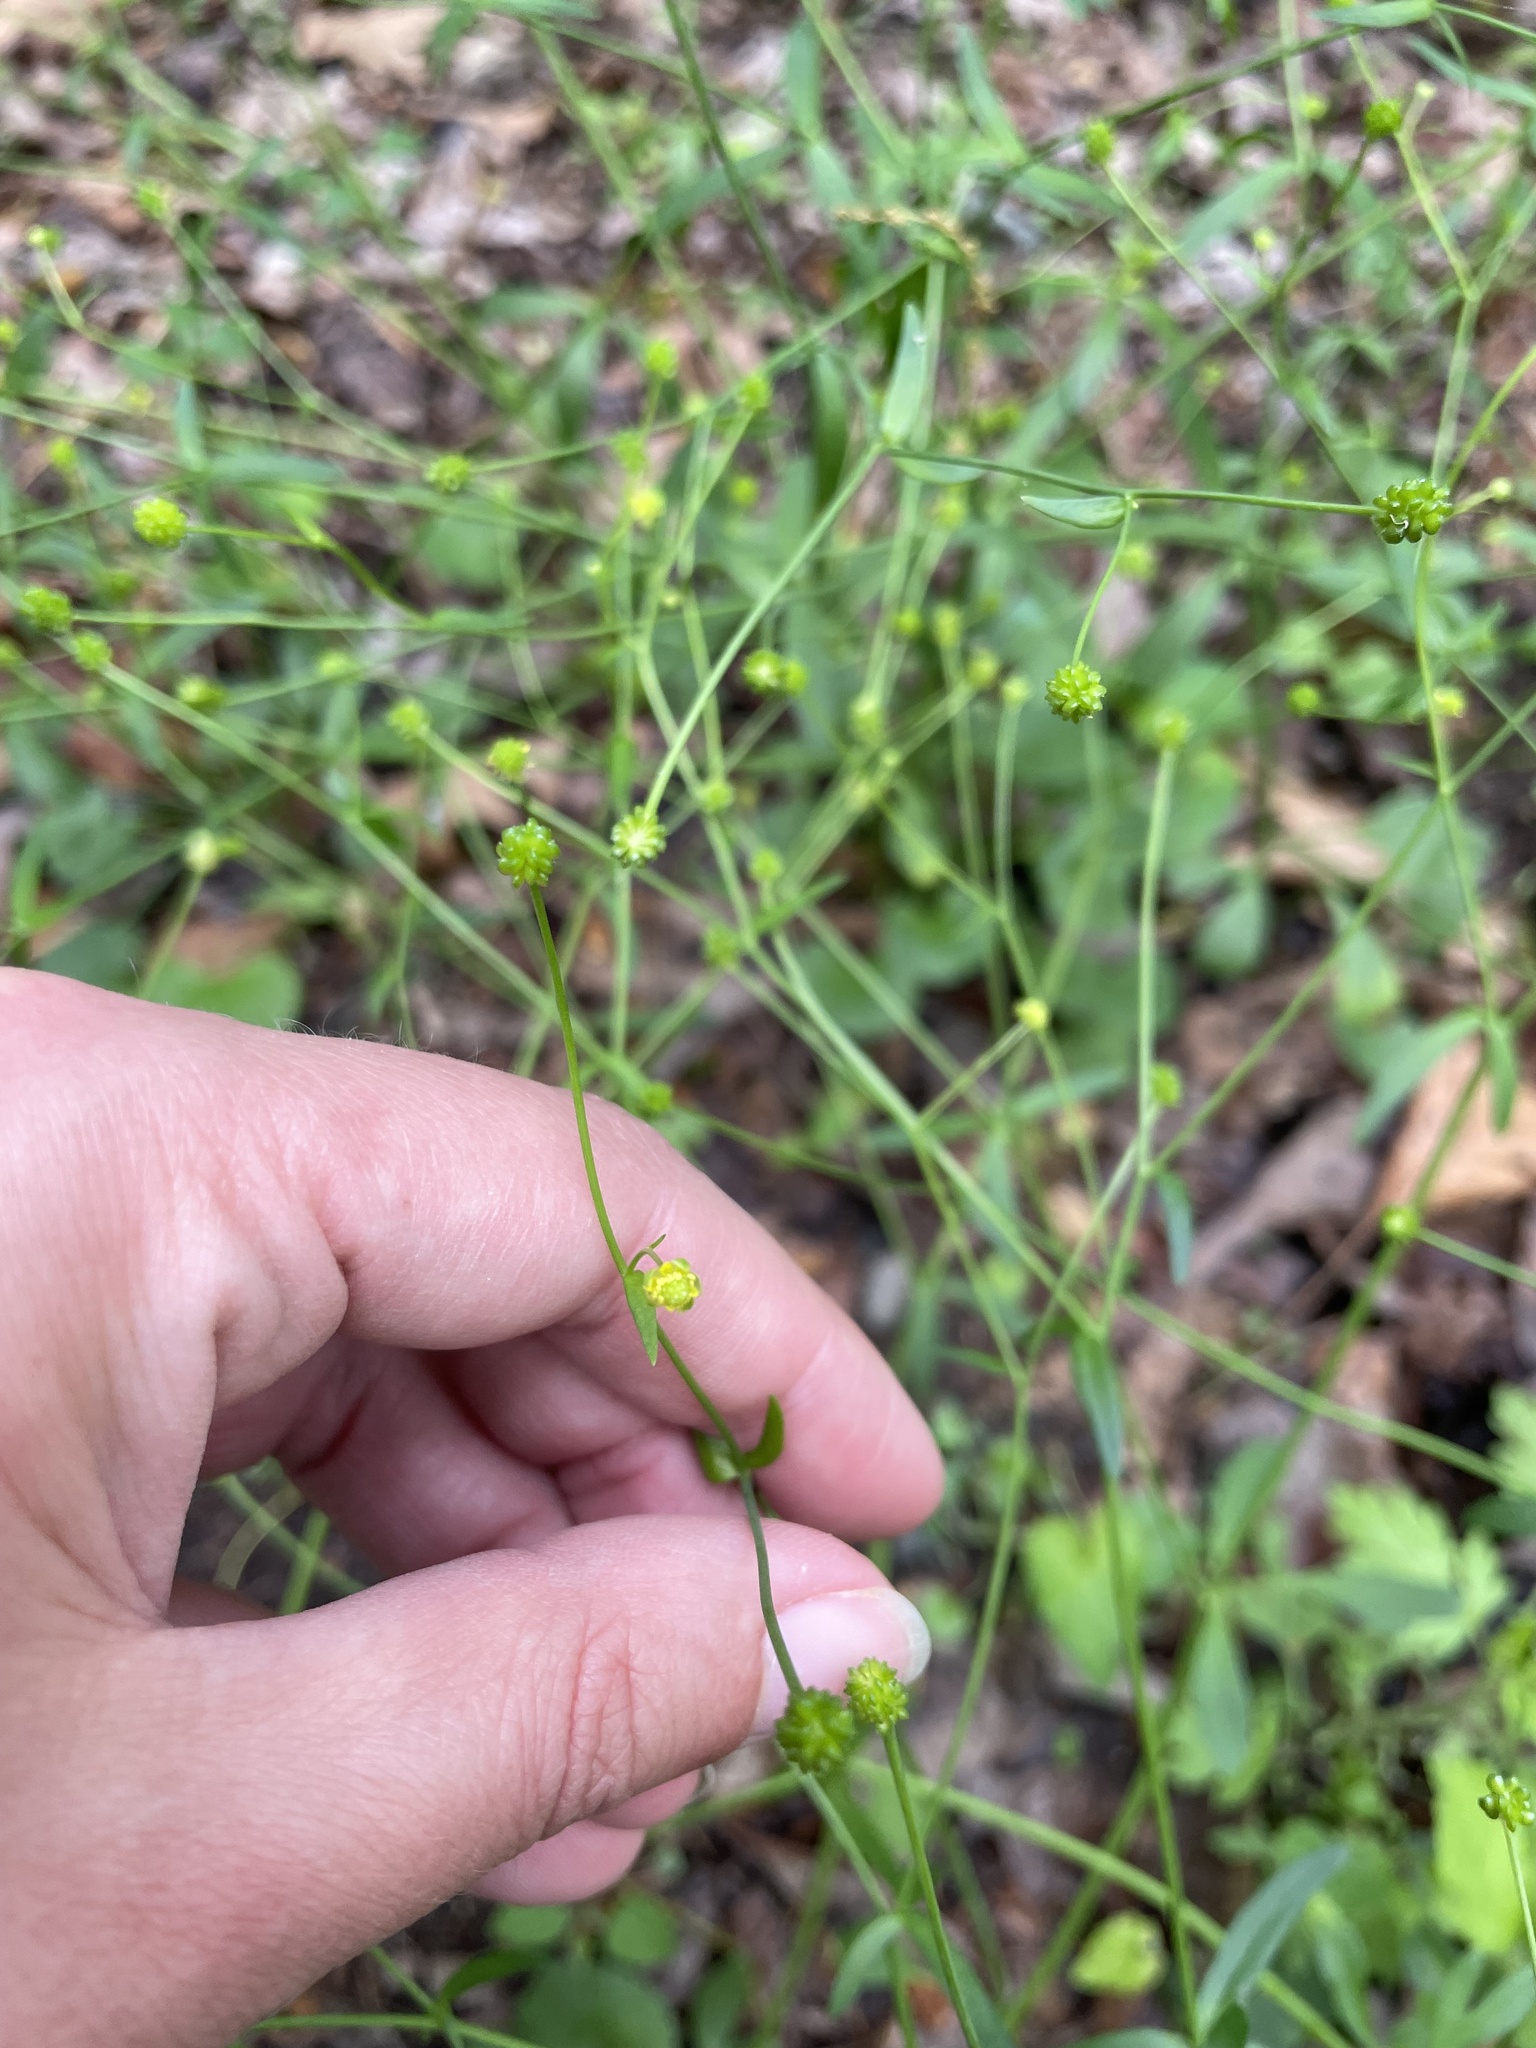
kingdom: Plantae
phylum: Tracheophyta
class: Magnoliopsida
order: Ranunculales
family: Ranunculaceae
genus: Ranunculus
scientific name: Ranunculus abortivus
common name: Early wood buttercup
